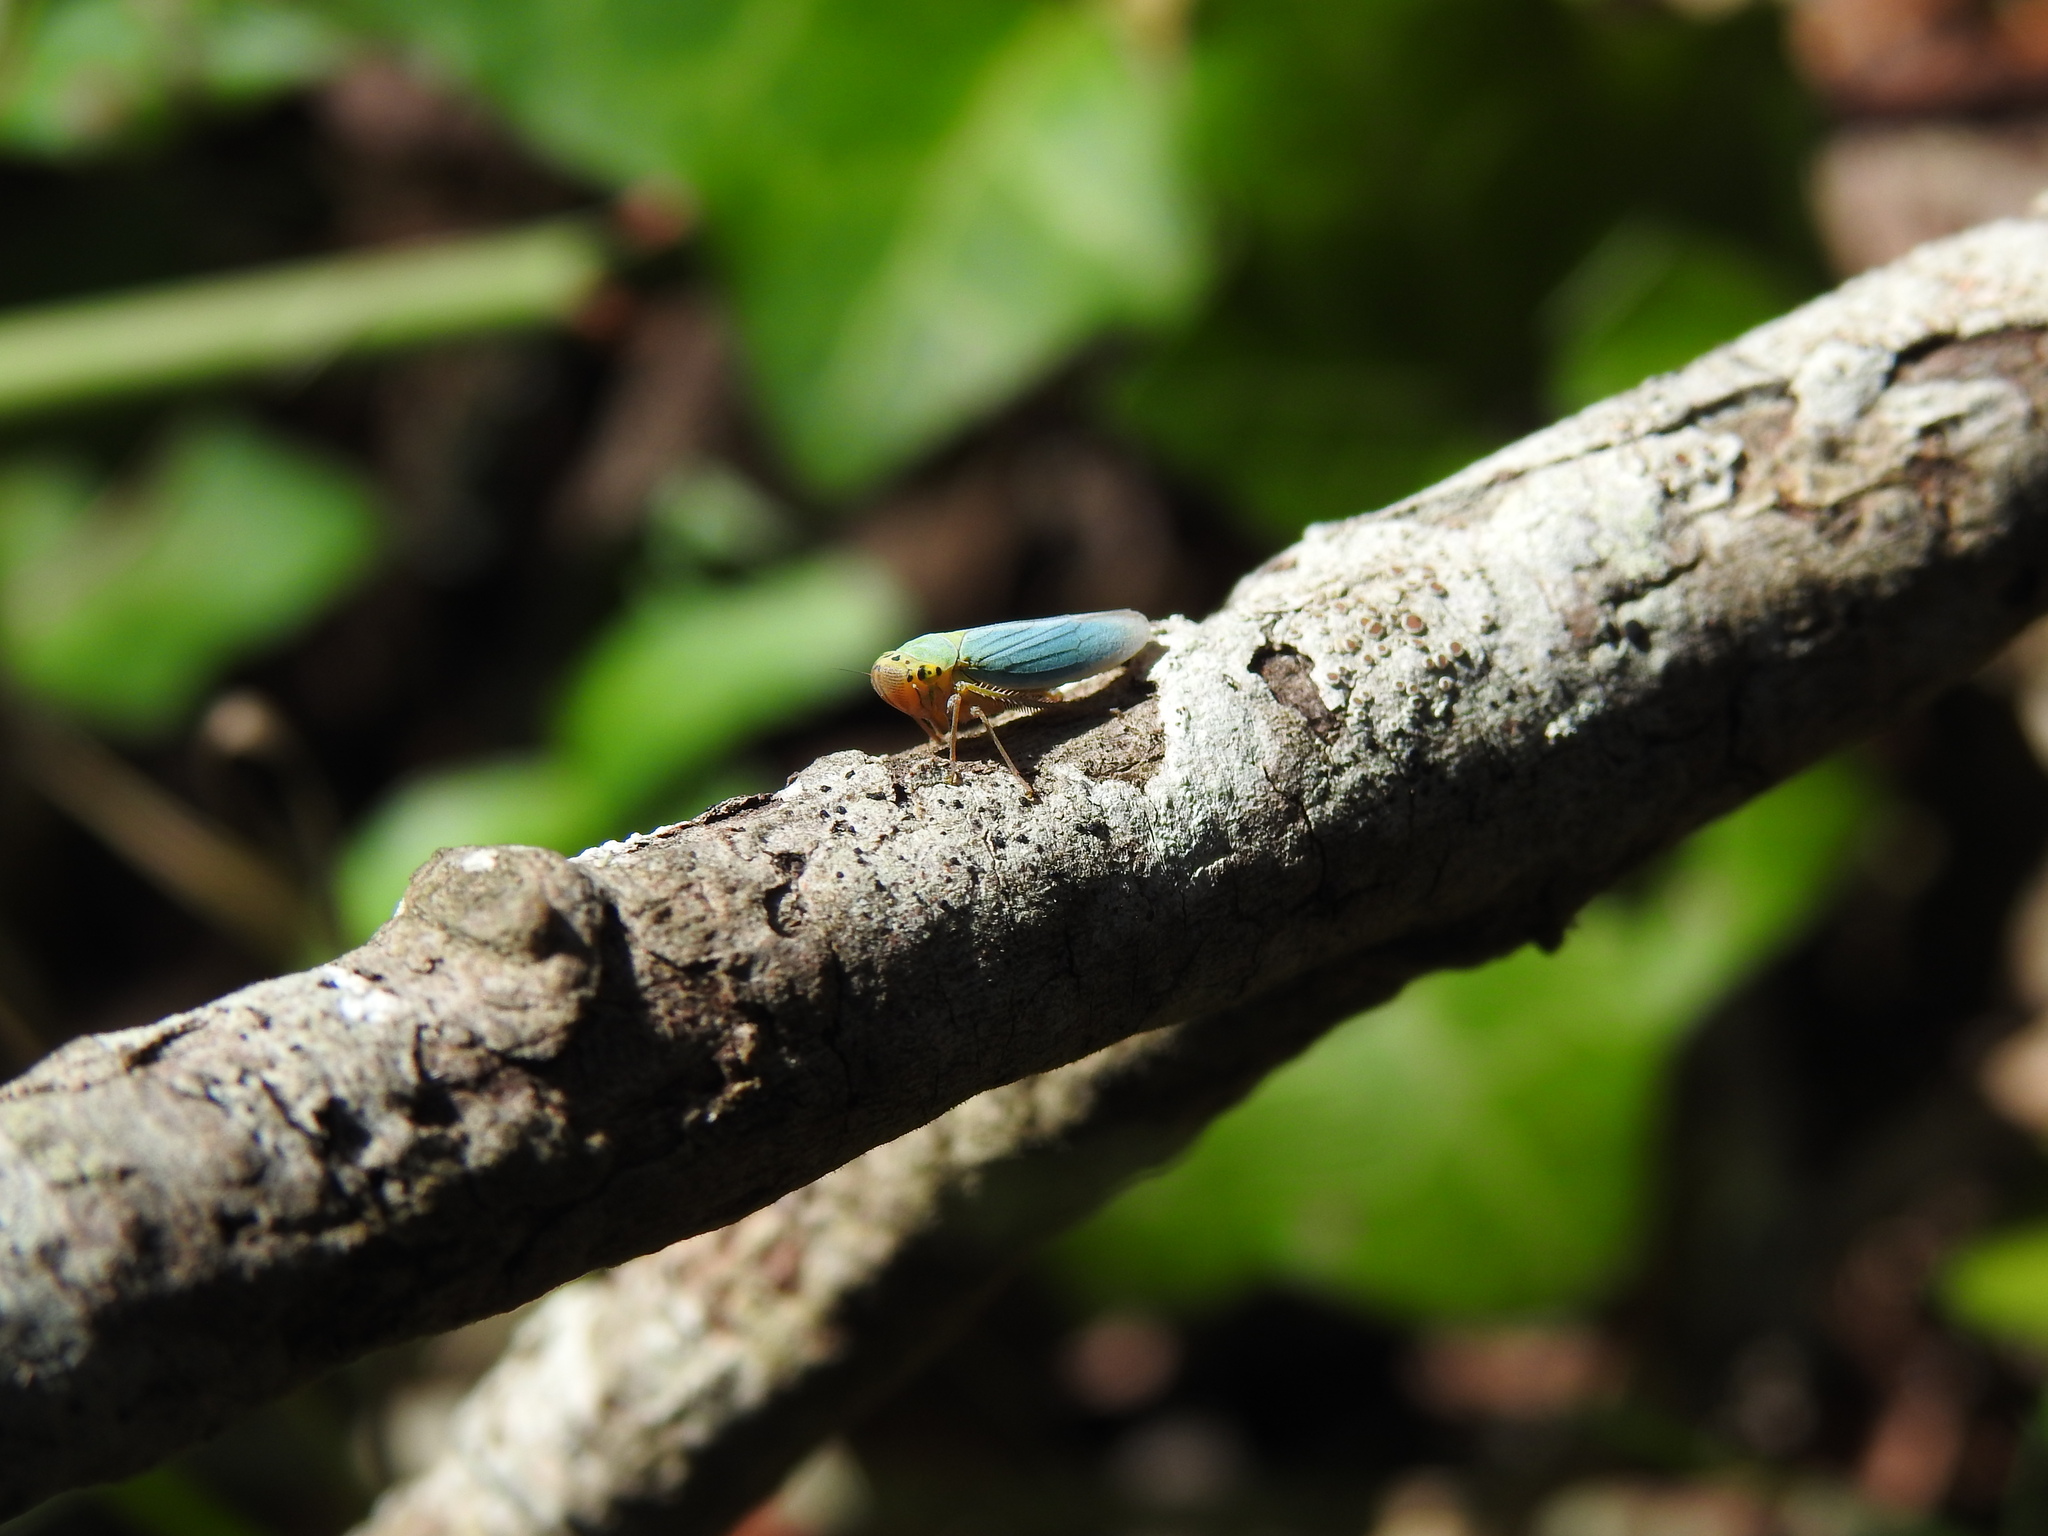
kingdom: Animalia
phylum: Arthropoda
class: Insecta
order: Hemiptera
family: Cicadellidae
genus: Cicadella
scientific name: Cicadella viridis
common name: Leafhopper
